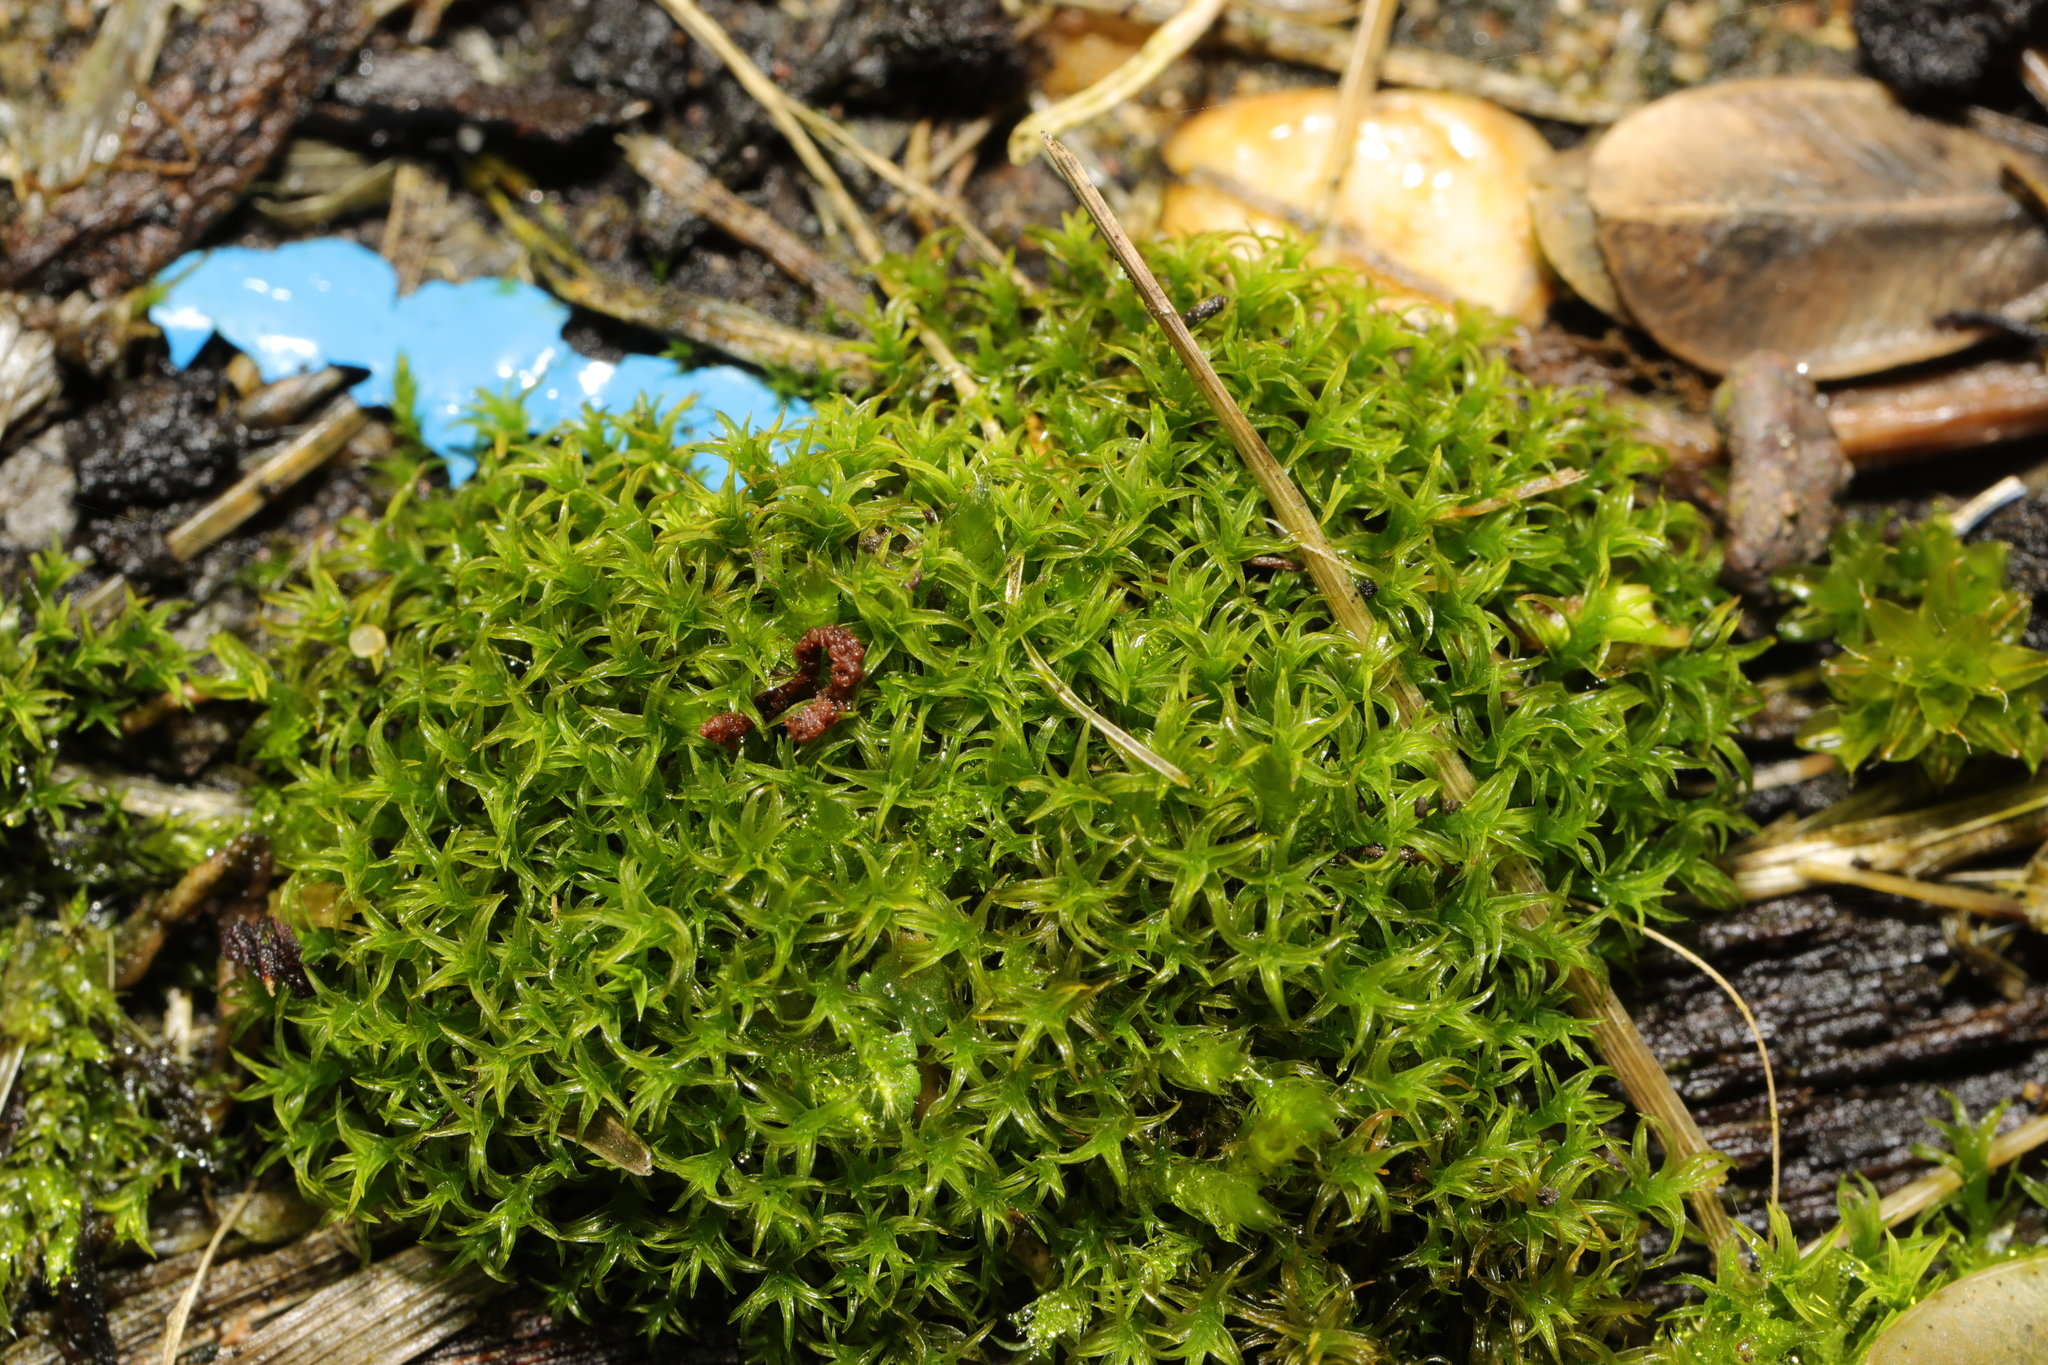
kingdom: Plantae
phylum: Bryophyta
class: Bryopsida
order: Pottiales
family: Pottiaceae
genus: Vinealobryum
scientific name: Vinealobryum insulanum
